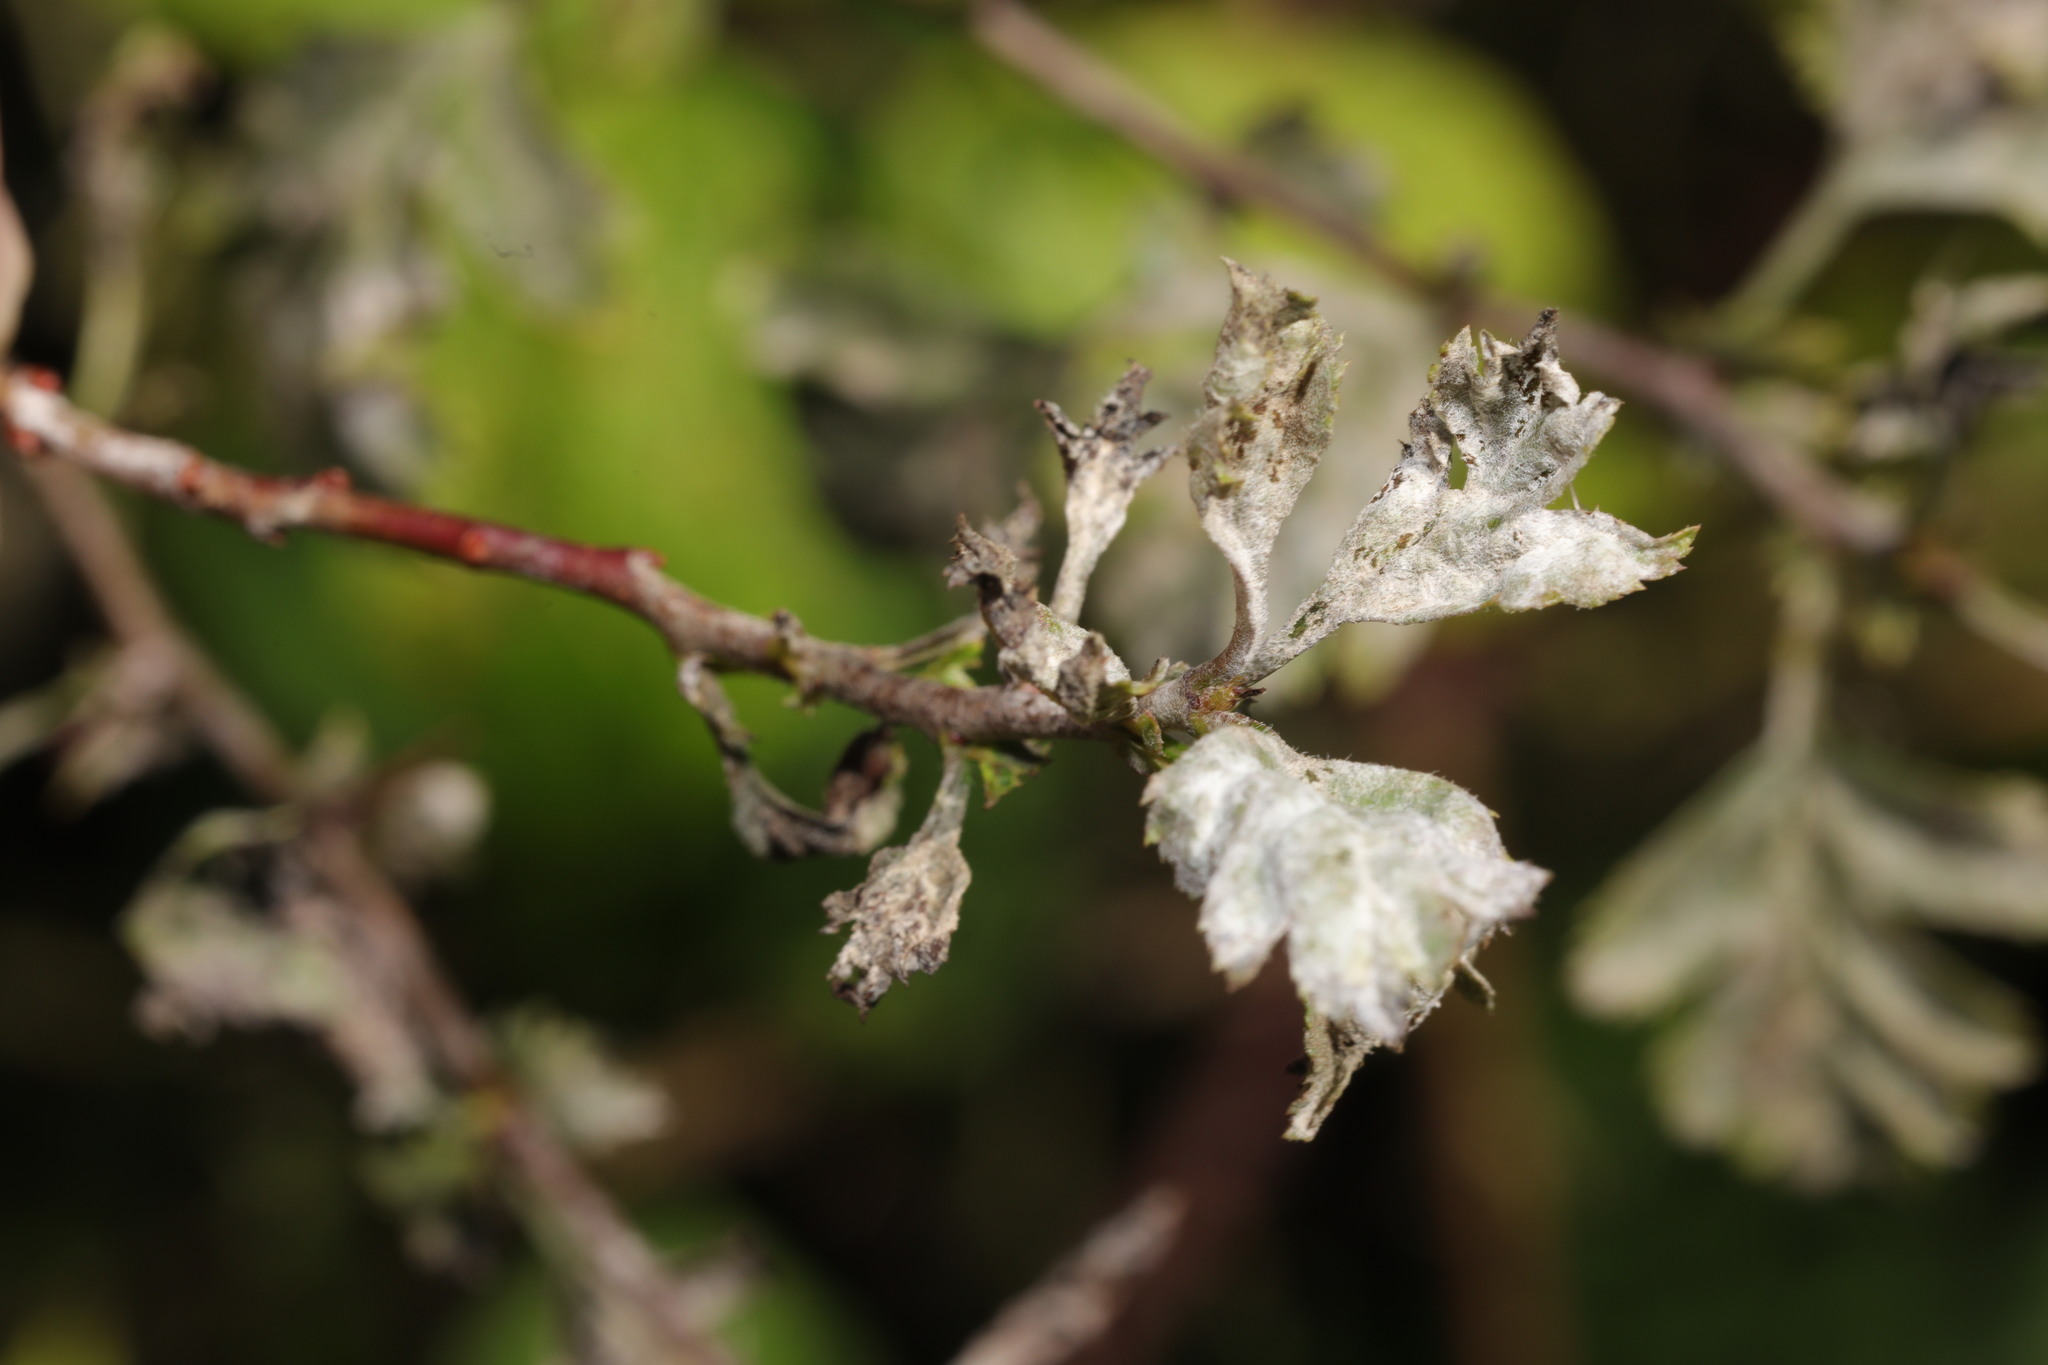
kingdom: Fungi
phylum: Ascomycota
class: Leotiomycetes
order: Helotiales
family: Erysiphaceae
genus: Podosphaera
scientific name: Podosphaera clandestina
